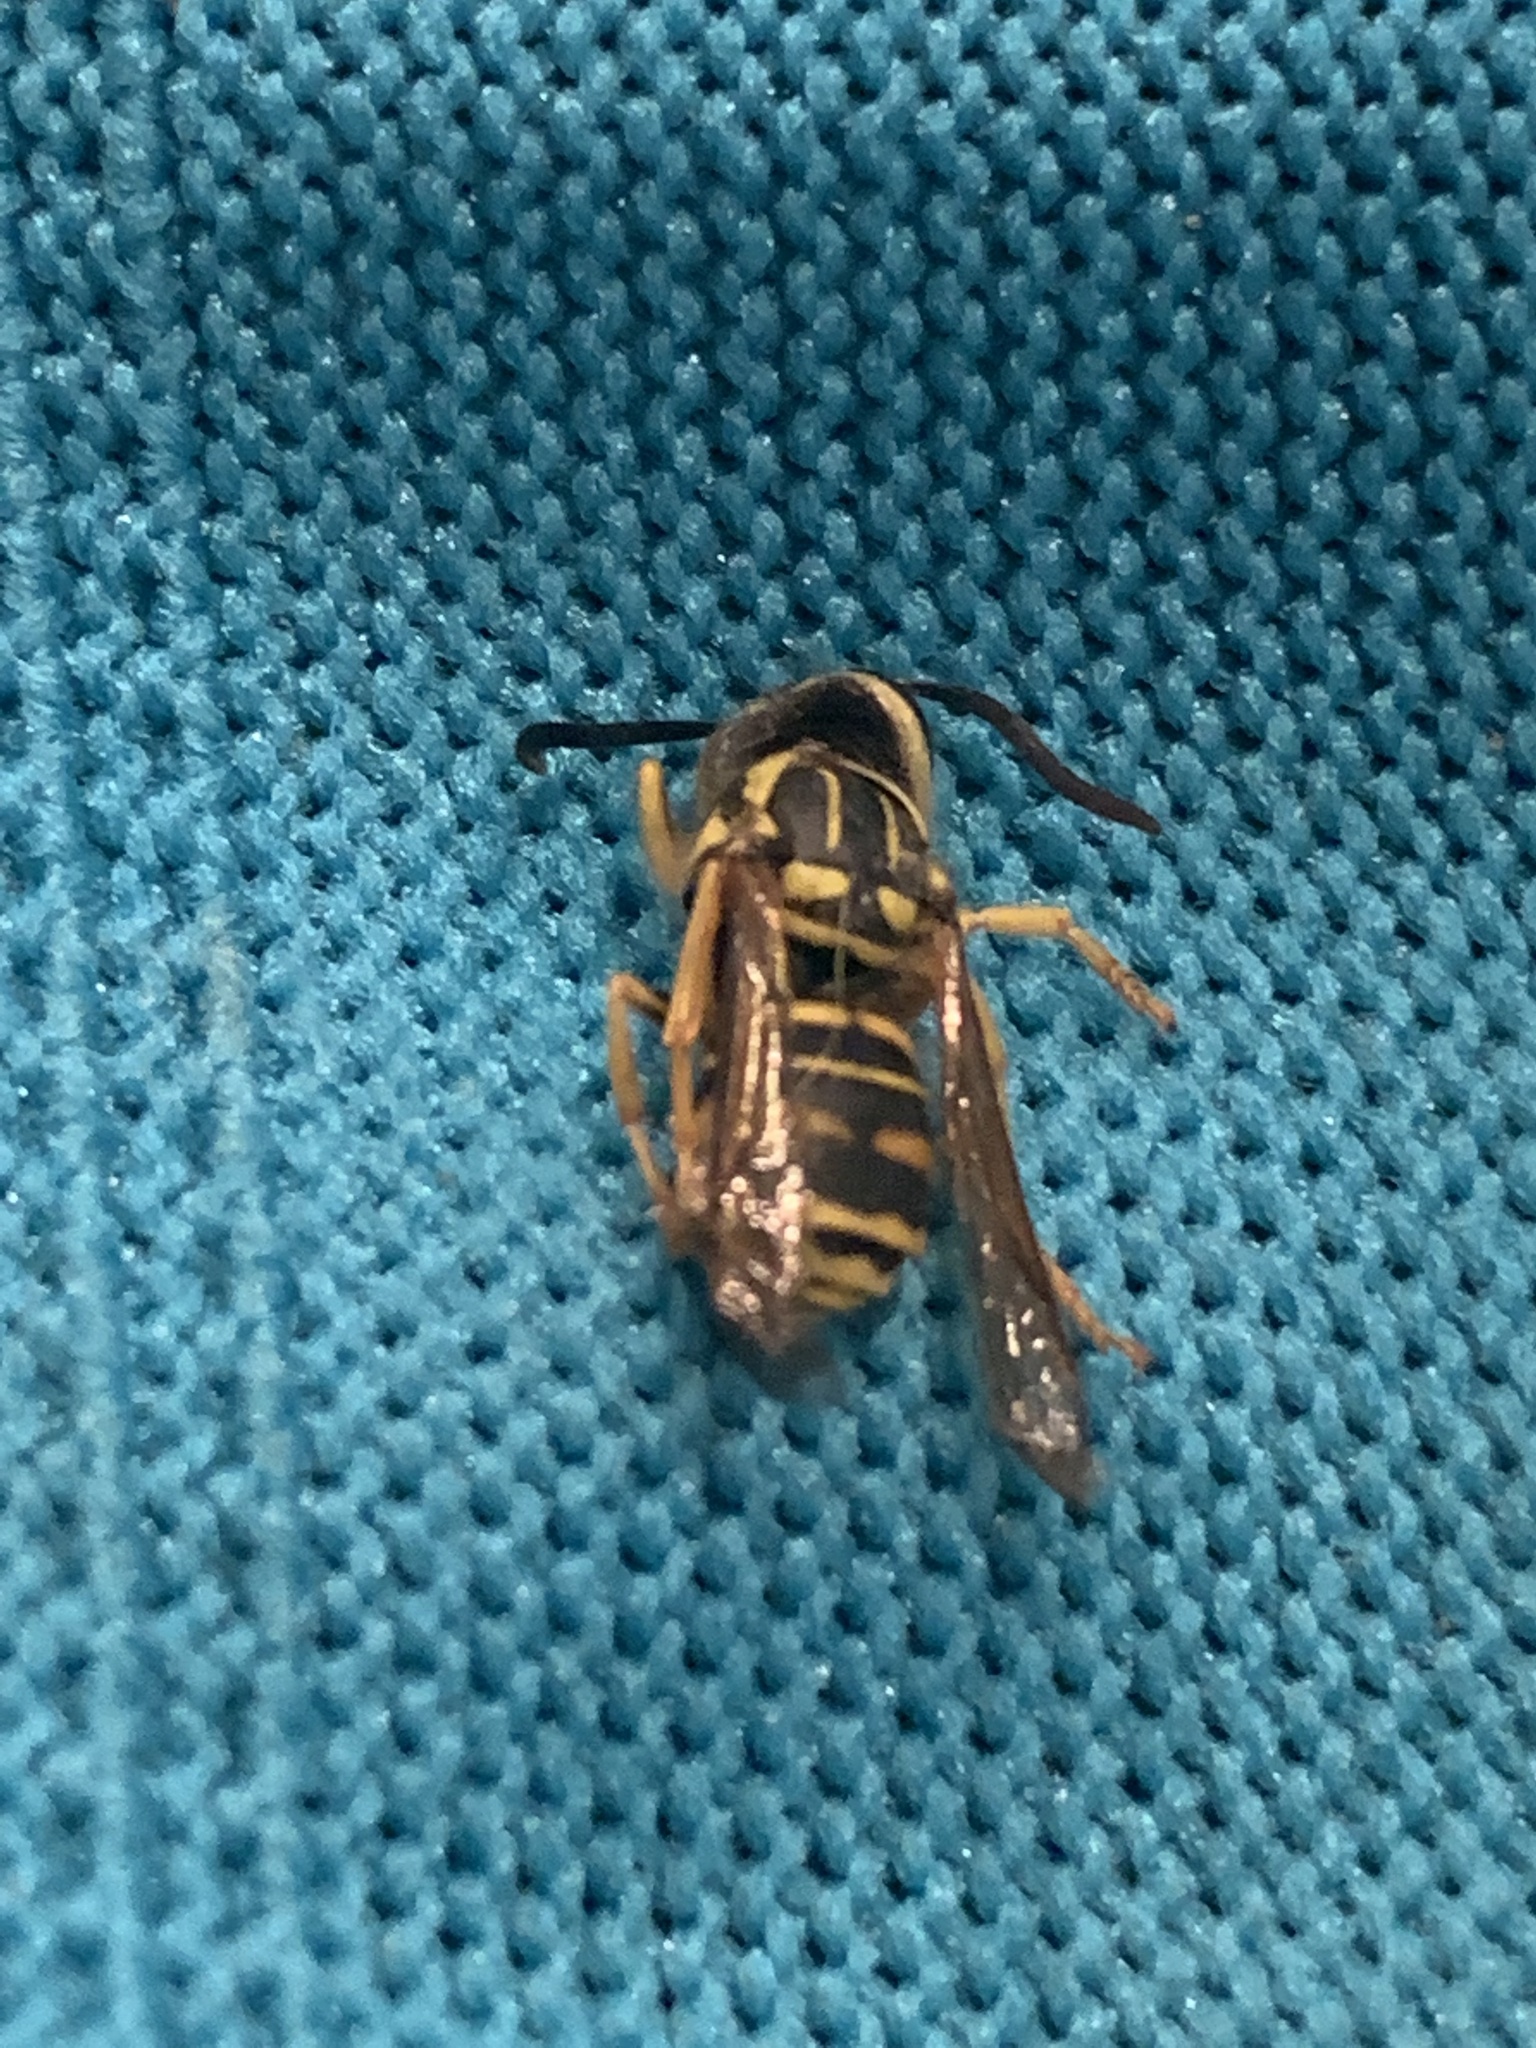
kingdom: Animalia
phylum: Arthropoda
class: Insecta
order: Hymenoptera
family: Vespidae
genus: Vespula
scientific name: Vespula squamosa
